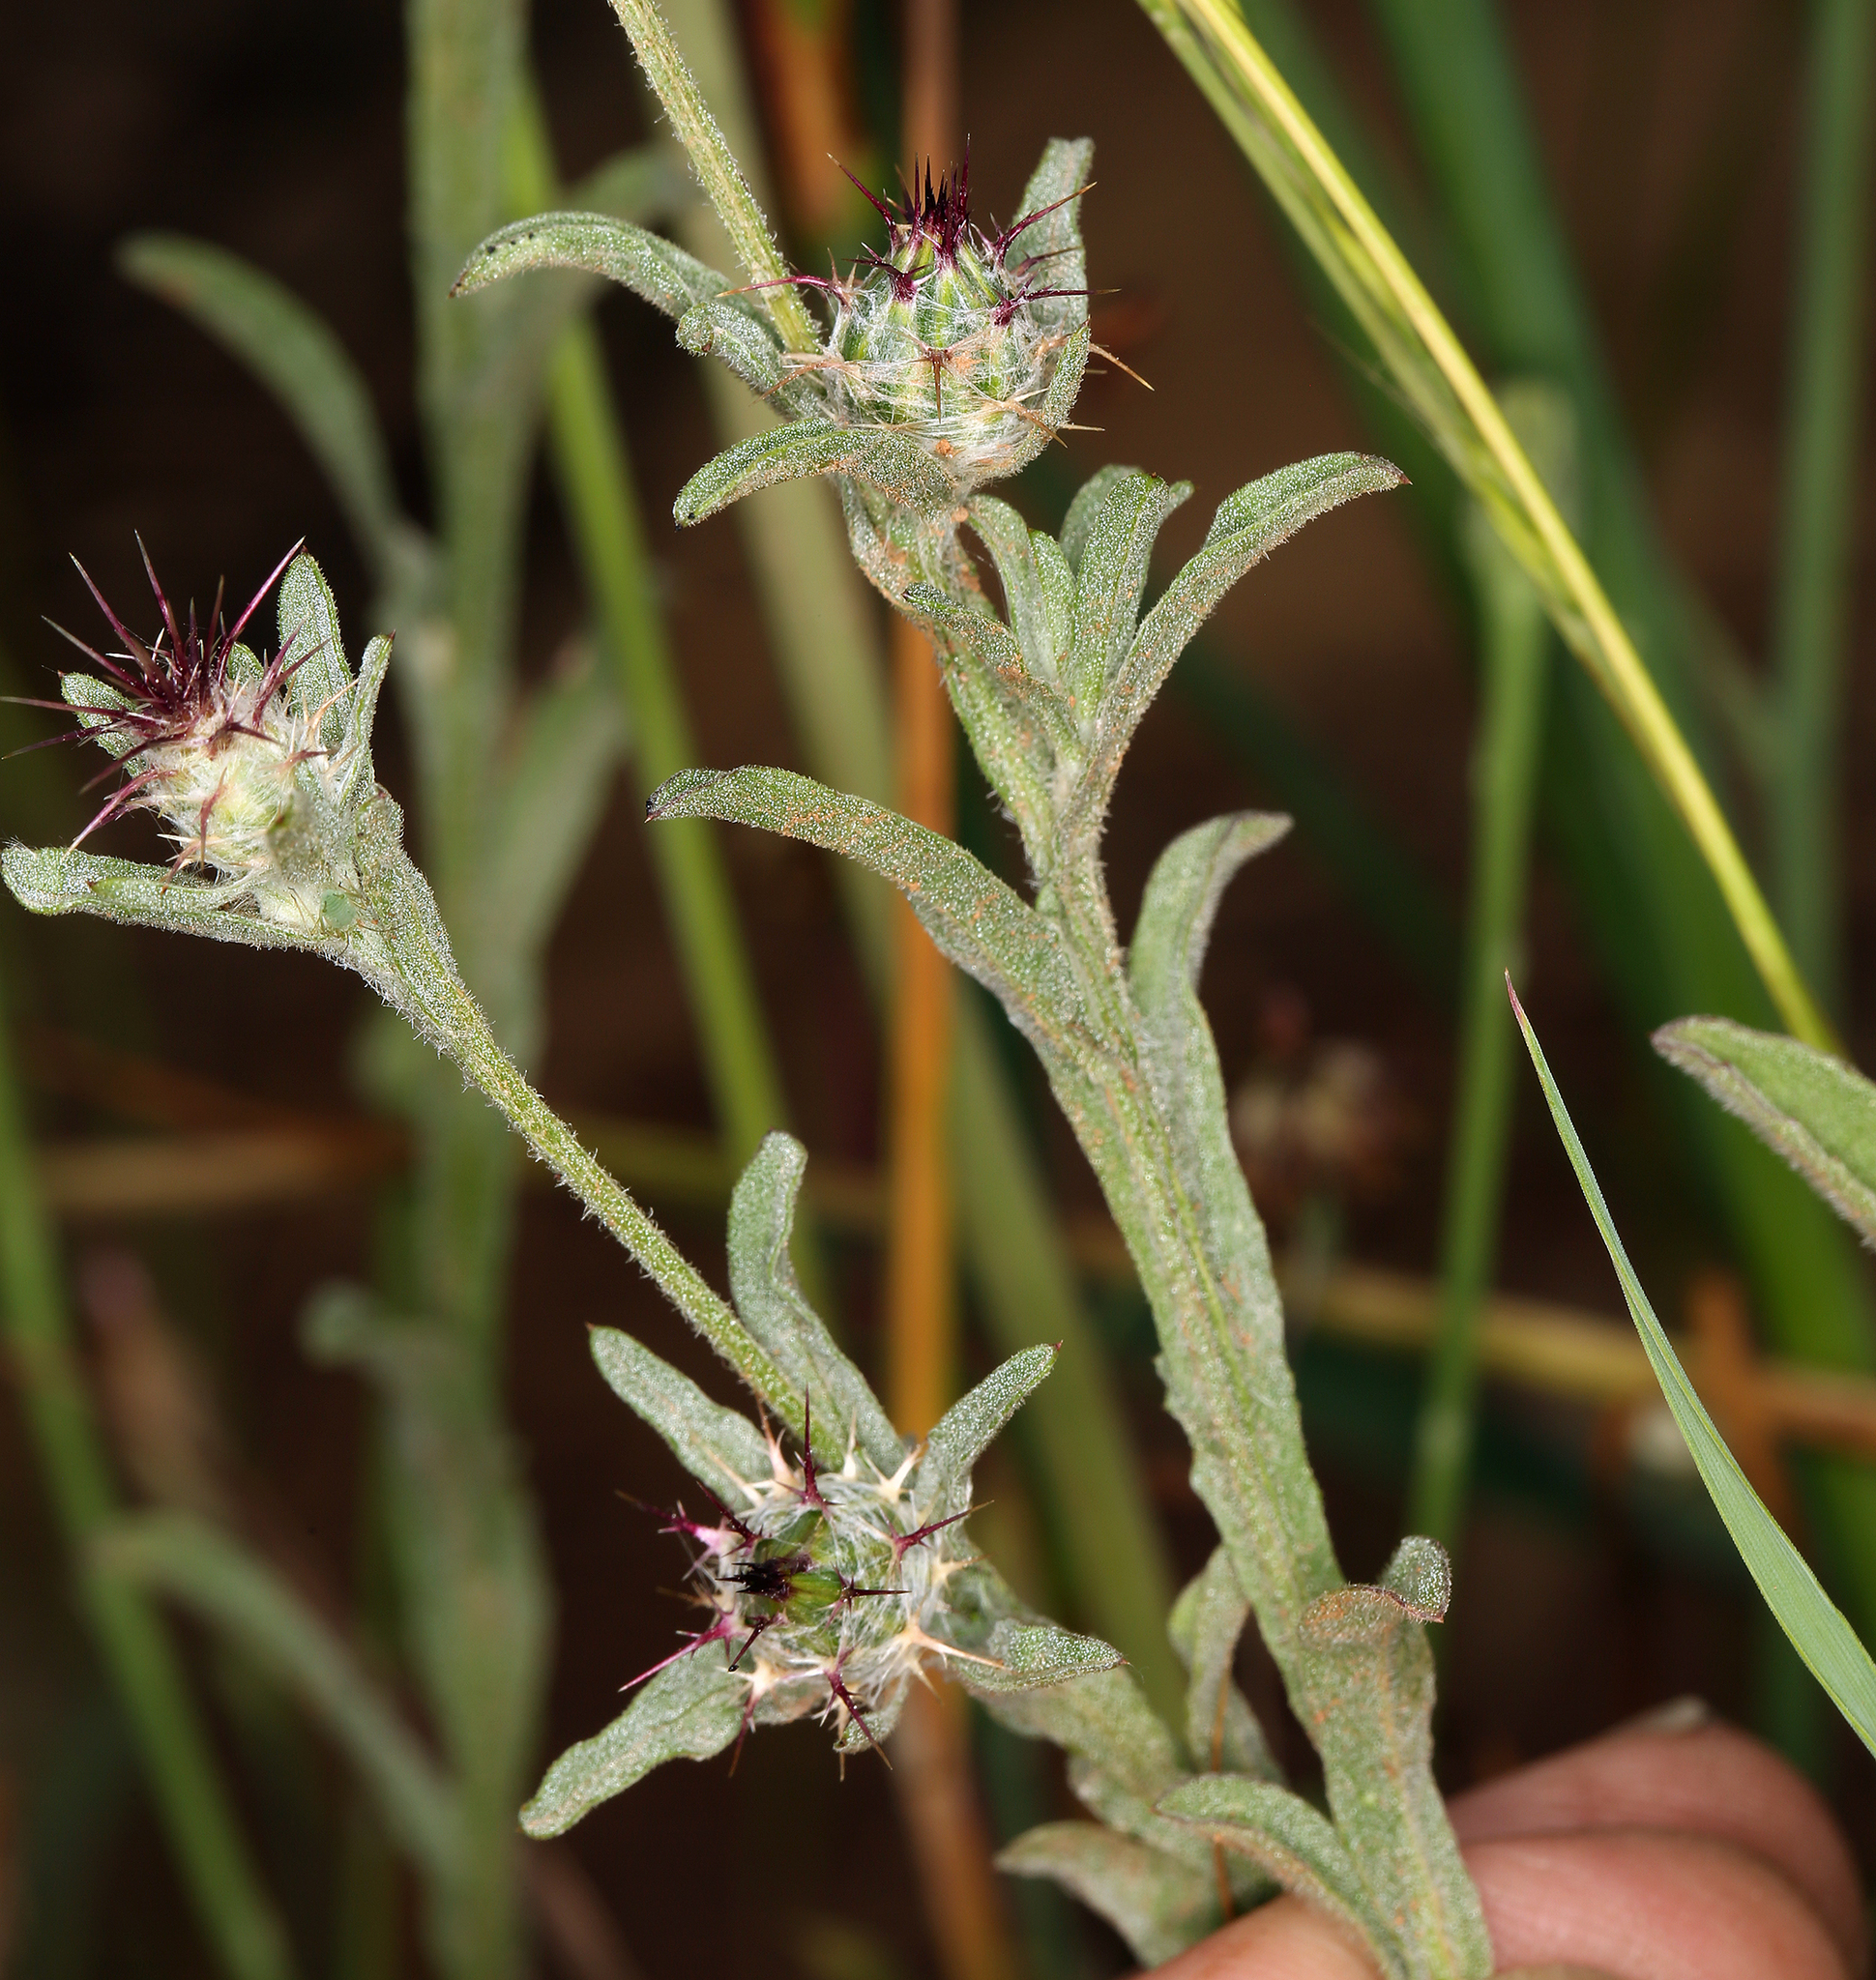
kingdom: Plantae
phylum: Tracheophyta
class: Magnoliopsida
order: Asterales
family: Asteraceae
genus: Centaurea
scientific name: Centaurea melitensis
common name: Maltese star-thistle
